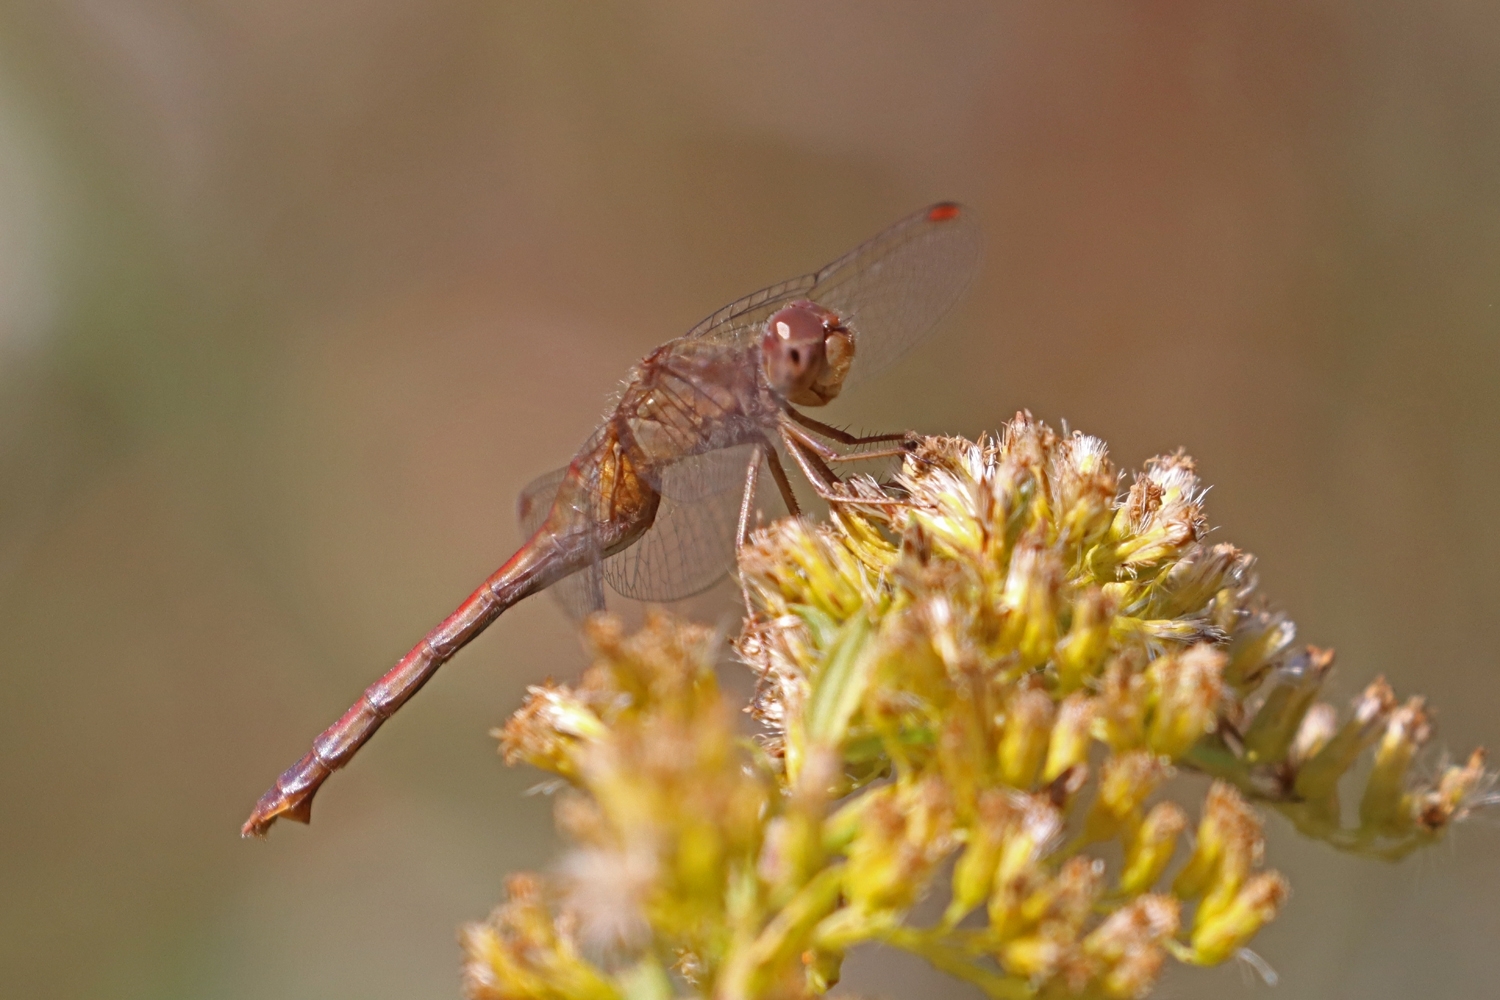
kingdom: Animalia
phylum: Arthropoda
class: Insecta
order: Odonata
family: Libellulidae
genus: Sympetrum
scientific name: Sympetrum vicinum
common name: Autumn meadowhawk
